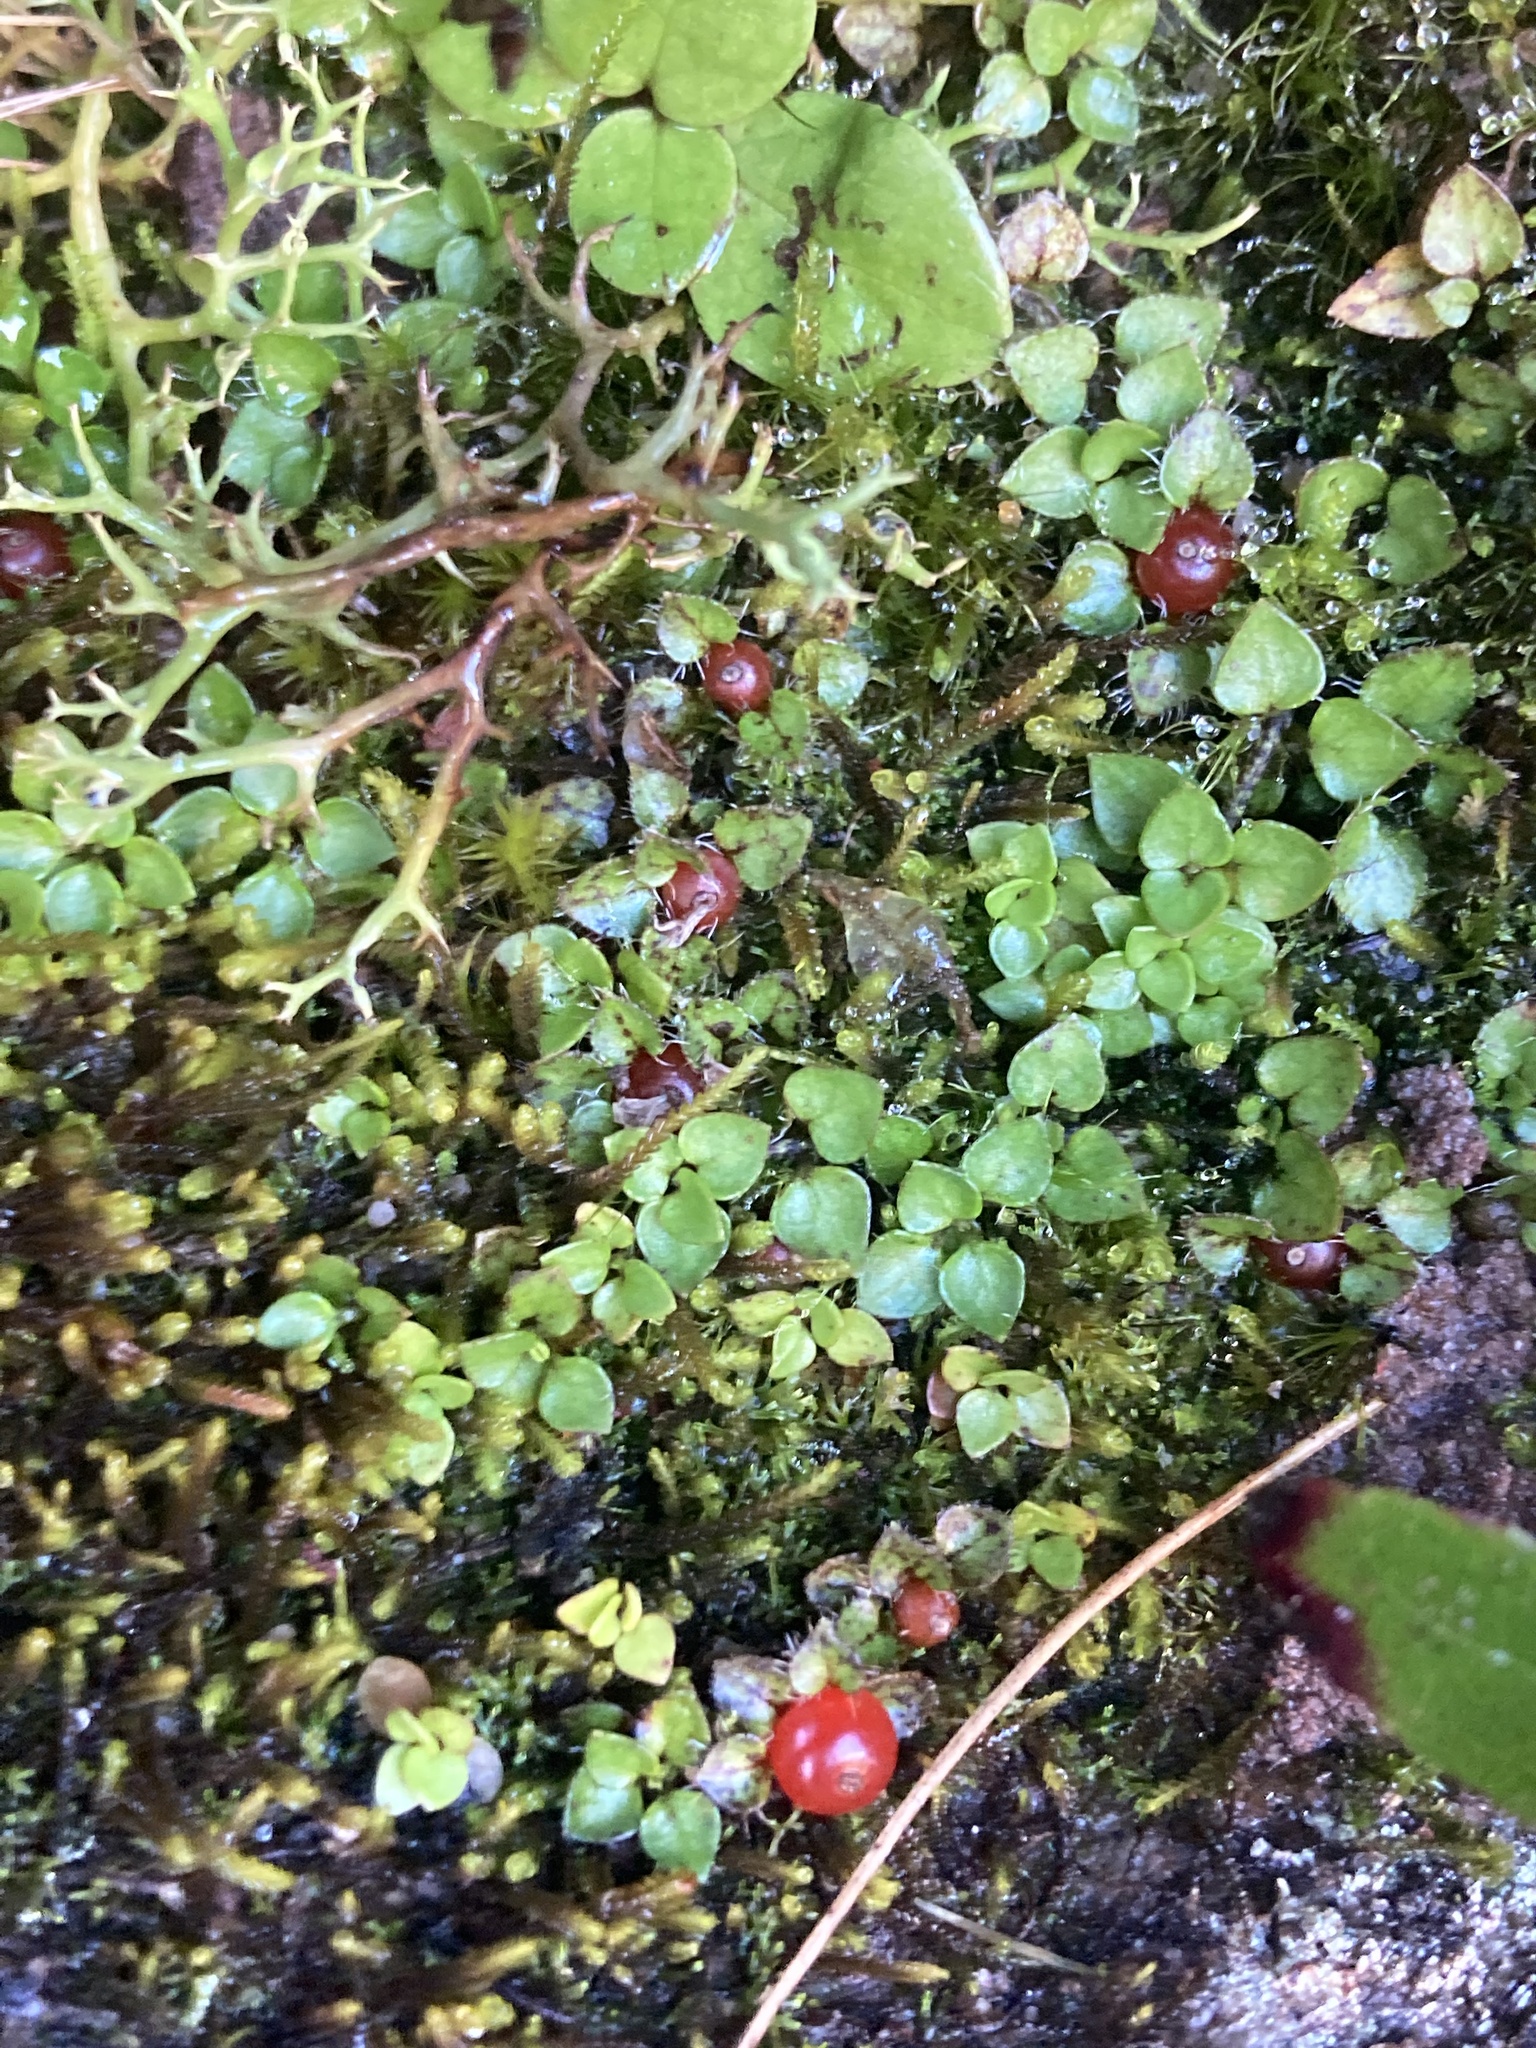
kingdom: Plantae
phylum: Tracheophyta
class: Magnoliopsida
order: Gentianales
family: Rubiaceae
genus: Nertera
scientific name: Nertera ciliata
